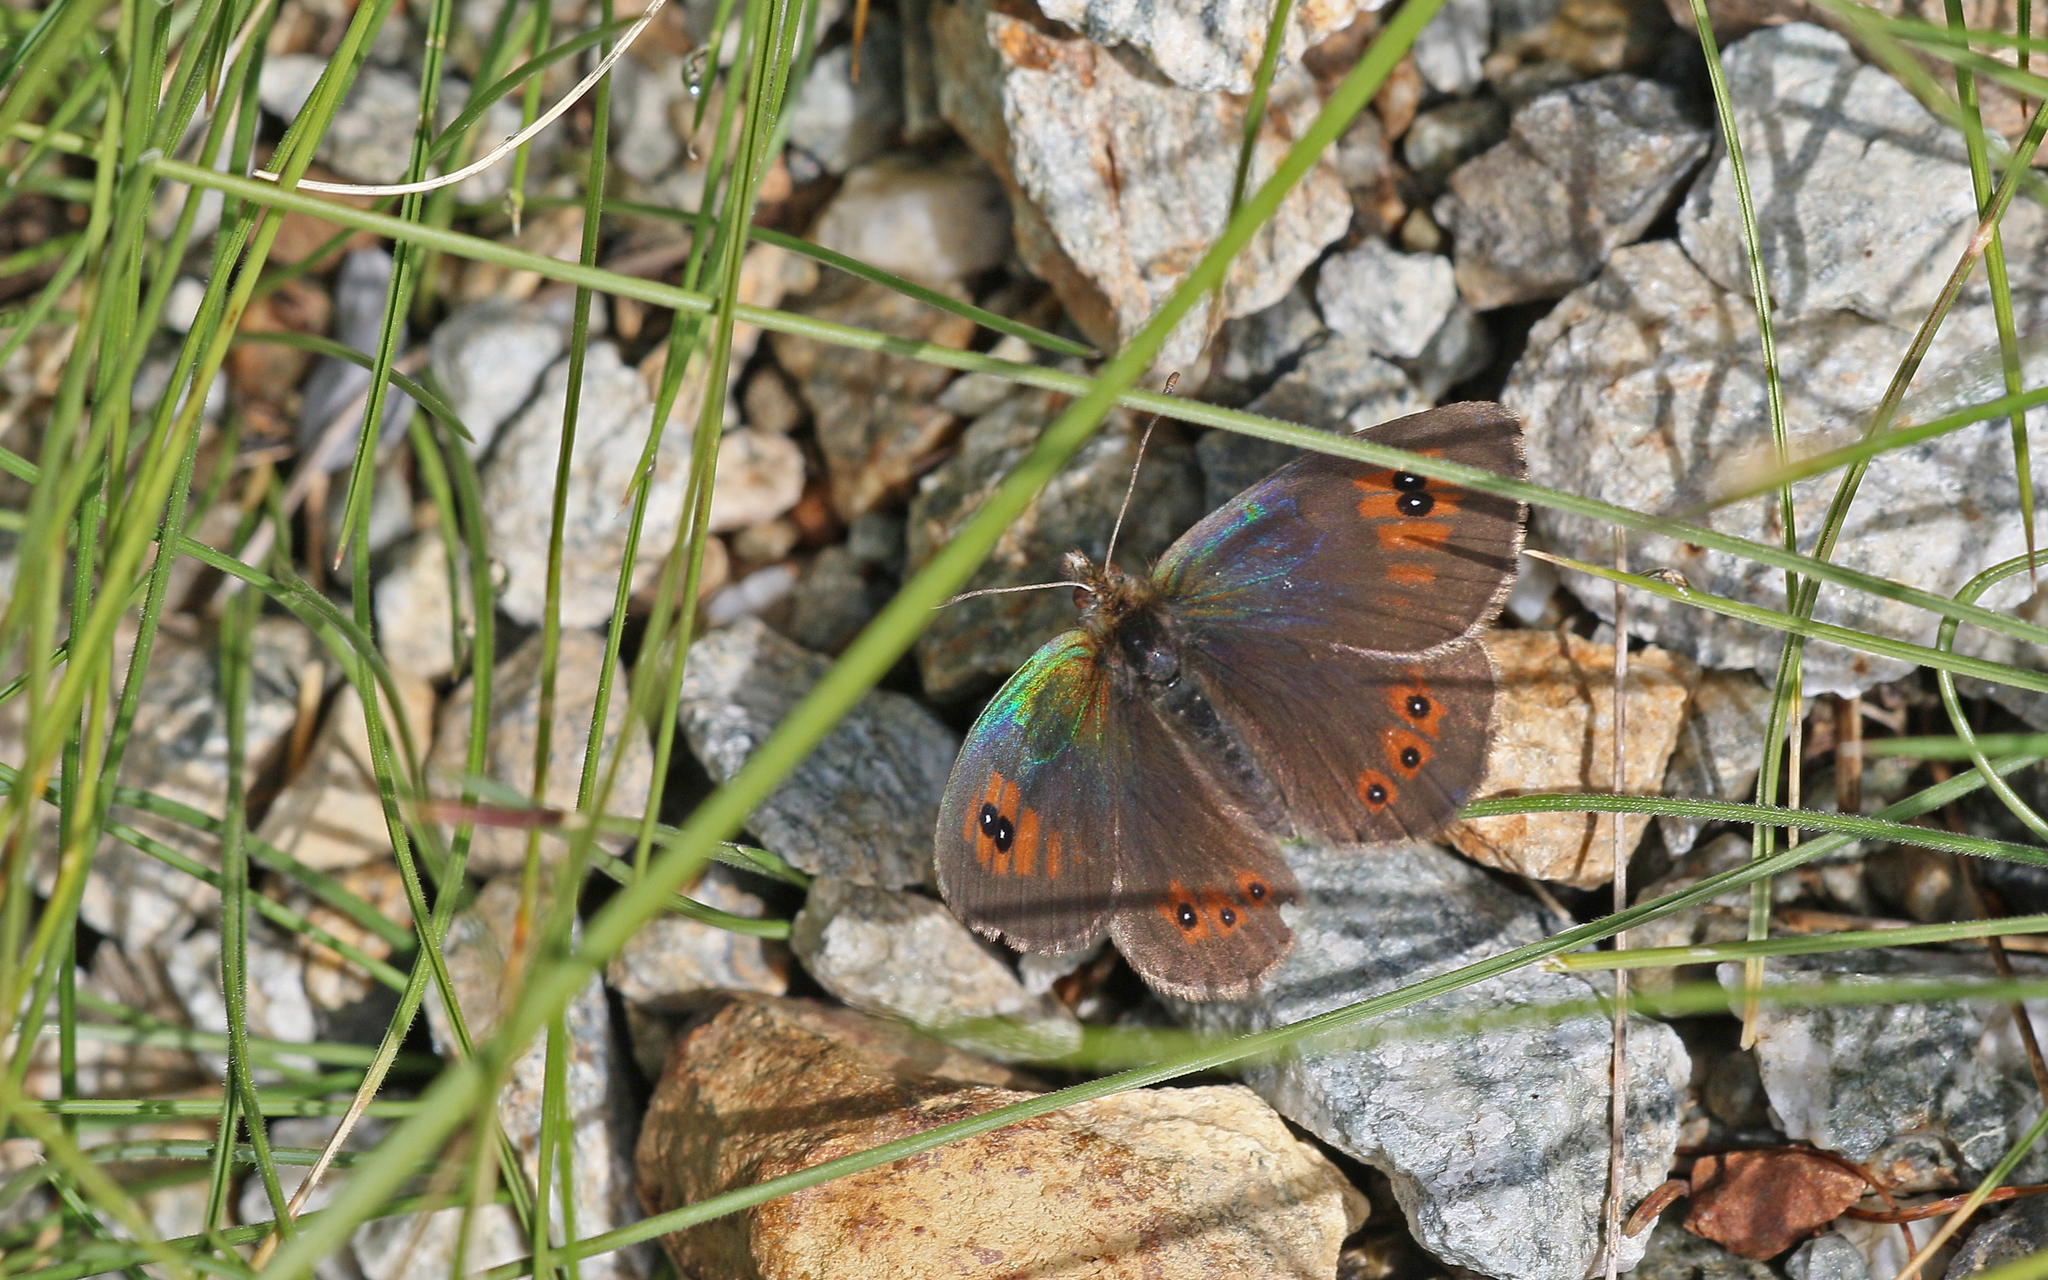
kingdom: Animalia
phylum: Arthropoda
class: Insecta
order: Lepidoptera
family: Nymphalidae
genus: Erebia
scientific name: Erebia cassioides
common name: Common brassy ringlet
